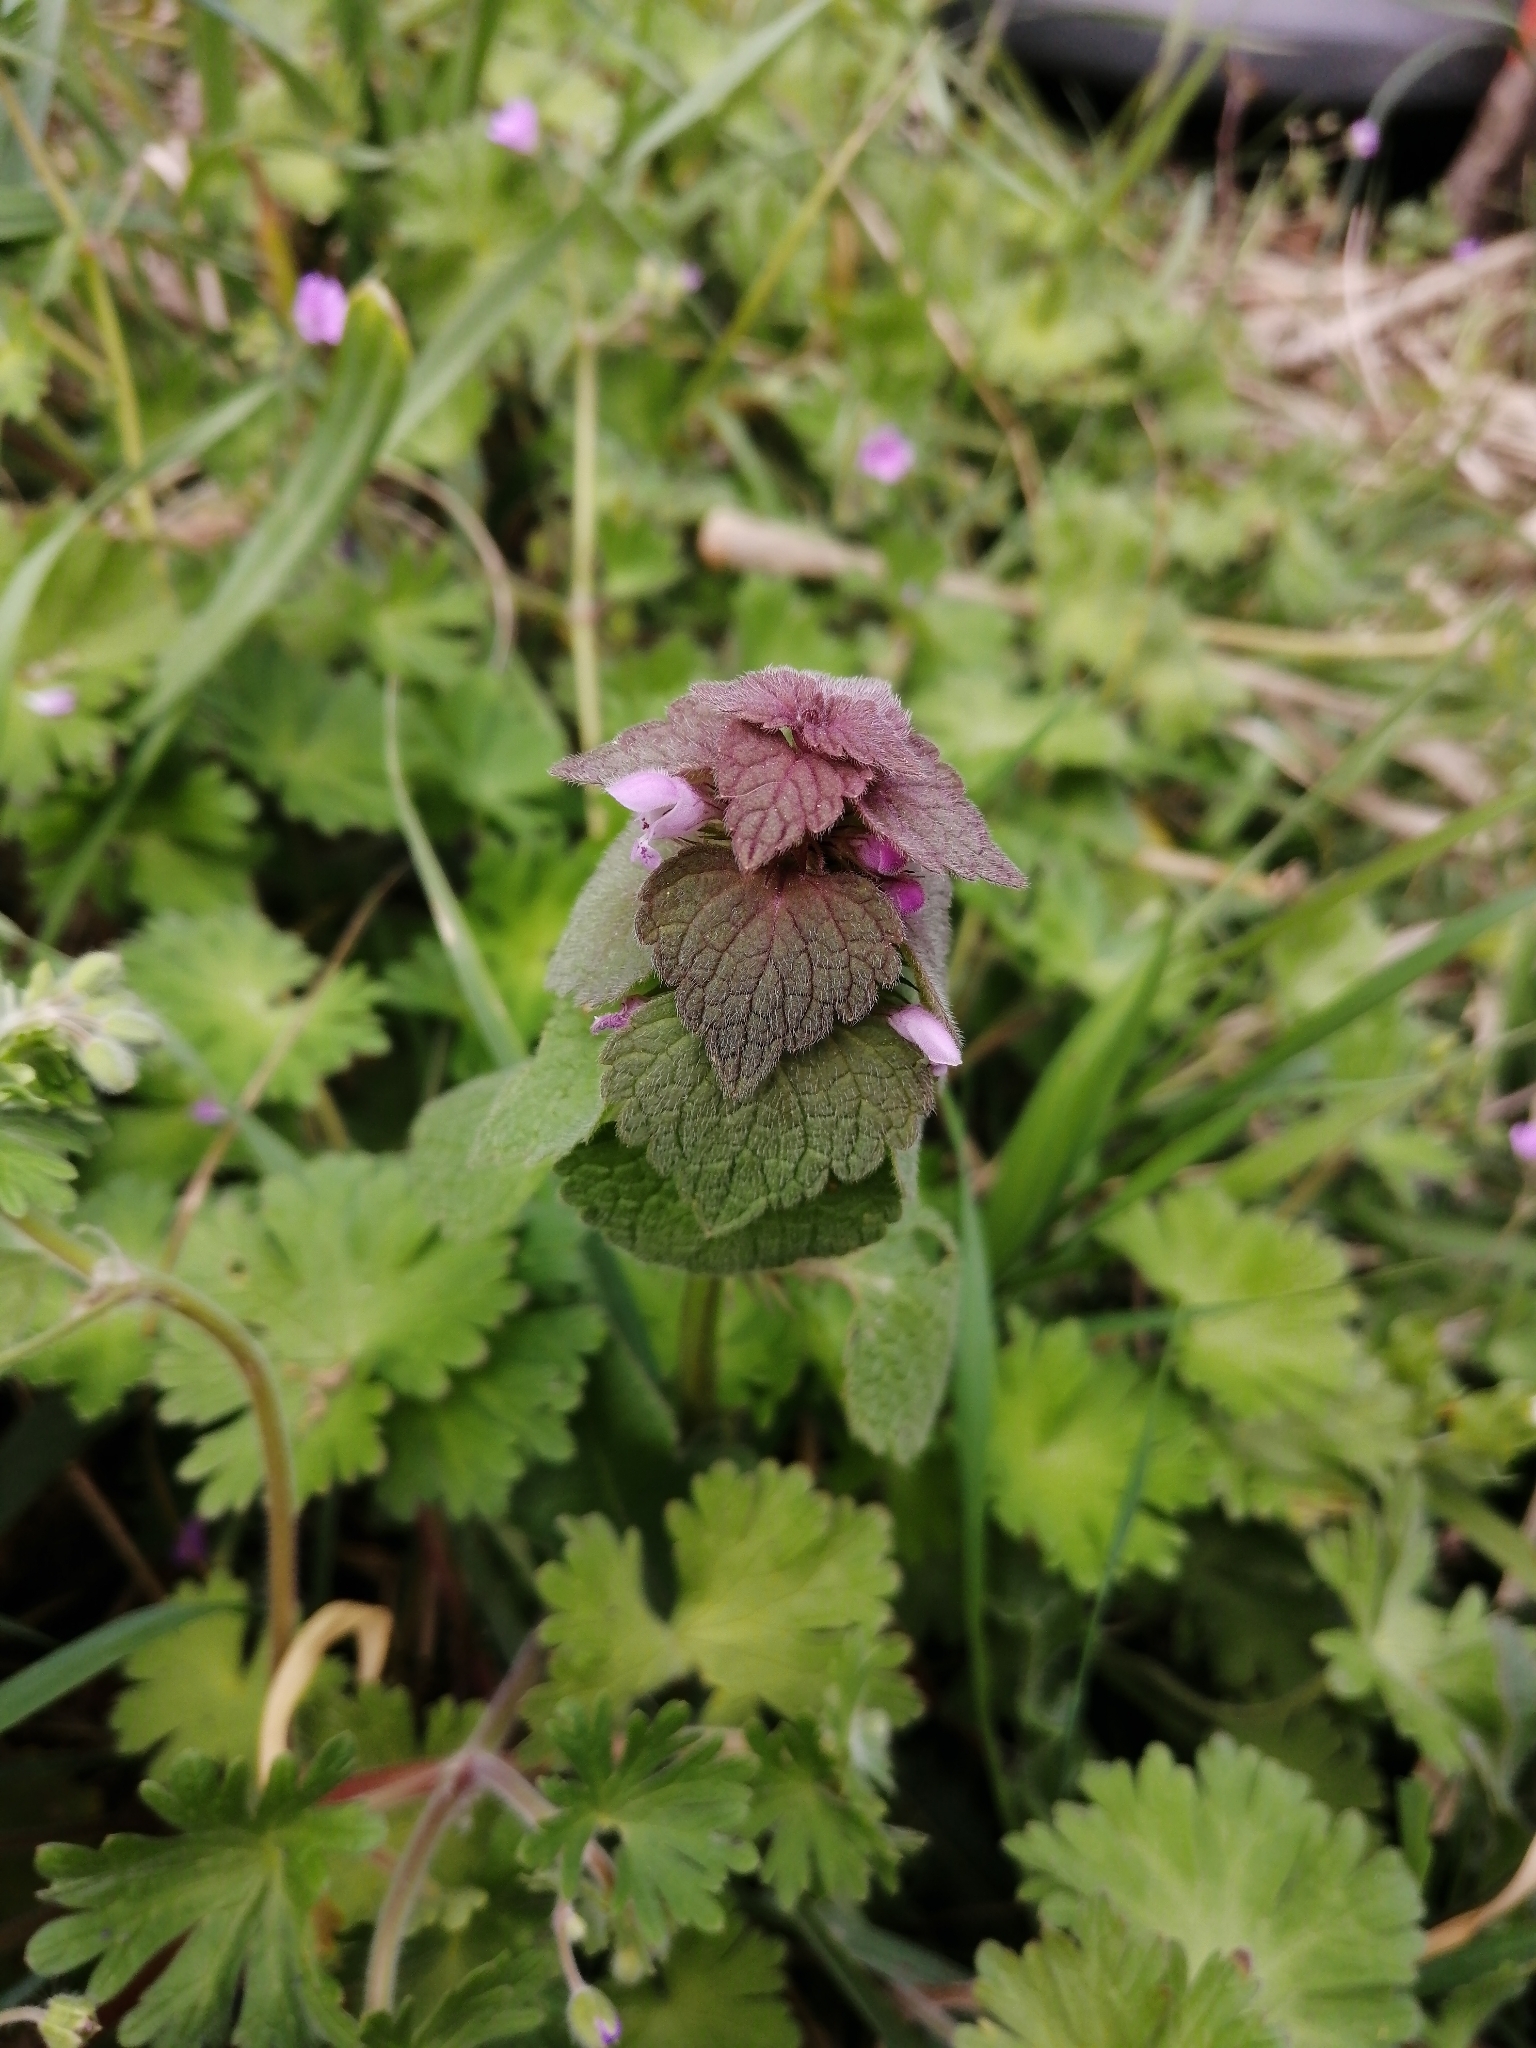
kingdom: Plantae
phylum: Tracheophyta
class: Magnoliopsida
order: Lamiales
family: Lamiaceae
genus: Lamium
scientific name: Lamium purpureum
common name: Red dead-nettle
